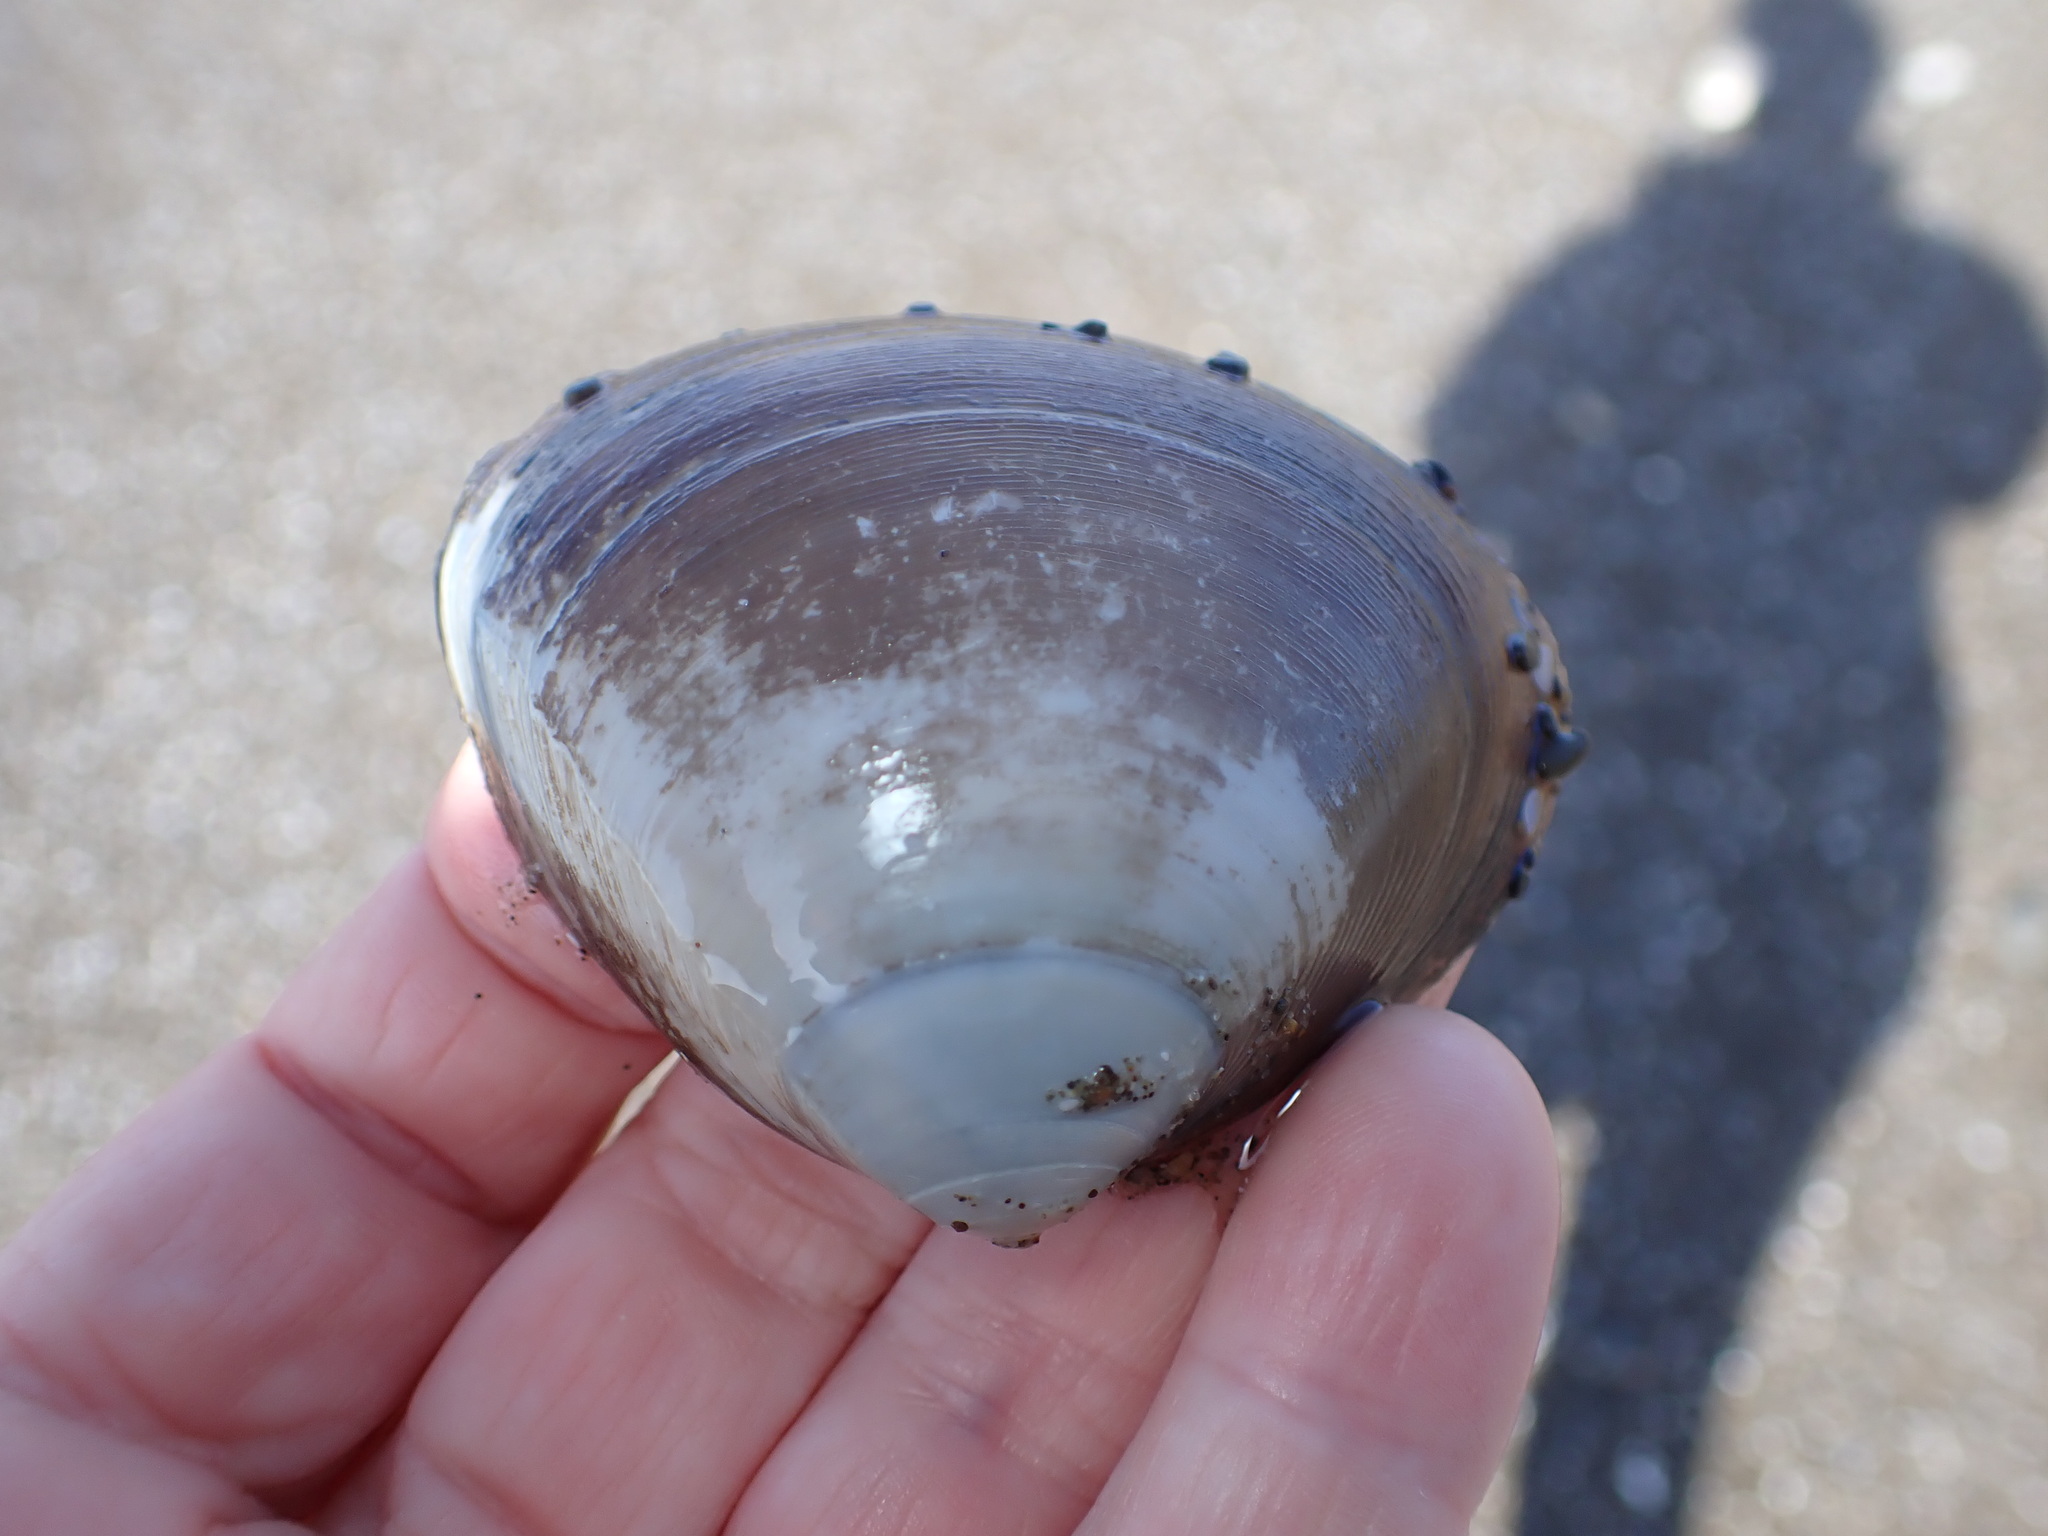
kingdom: Animalia
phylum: Mollusca
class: Bivalvia
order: Venerida
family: Mactridae
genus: Spisula
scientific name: Spisula discors
